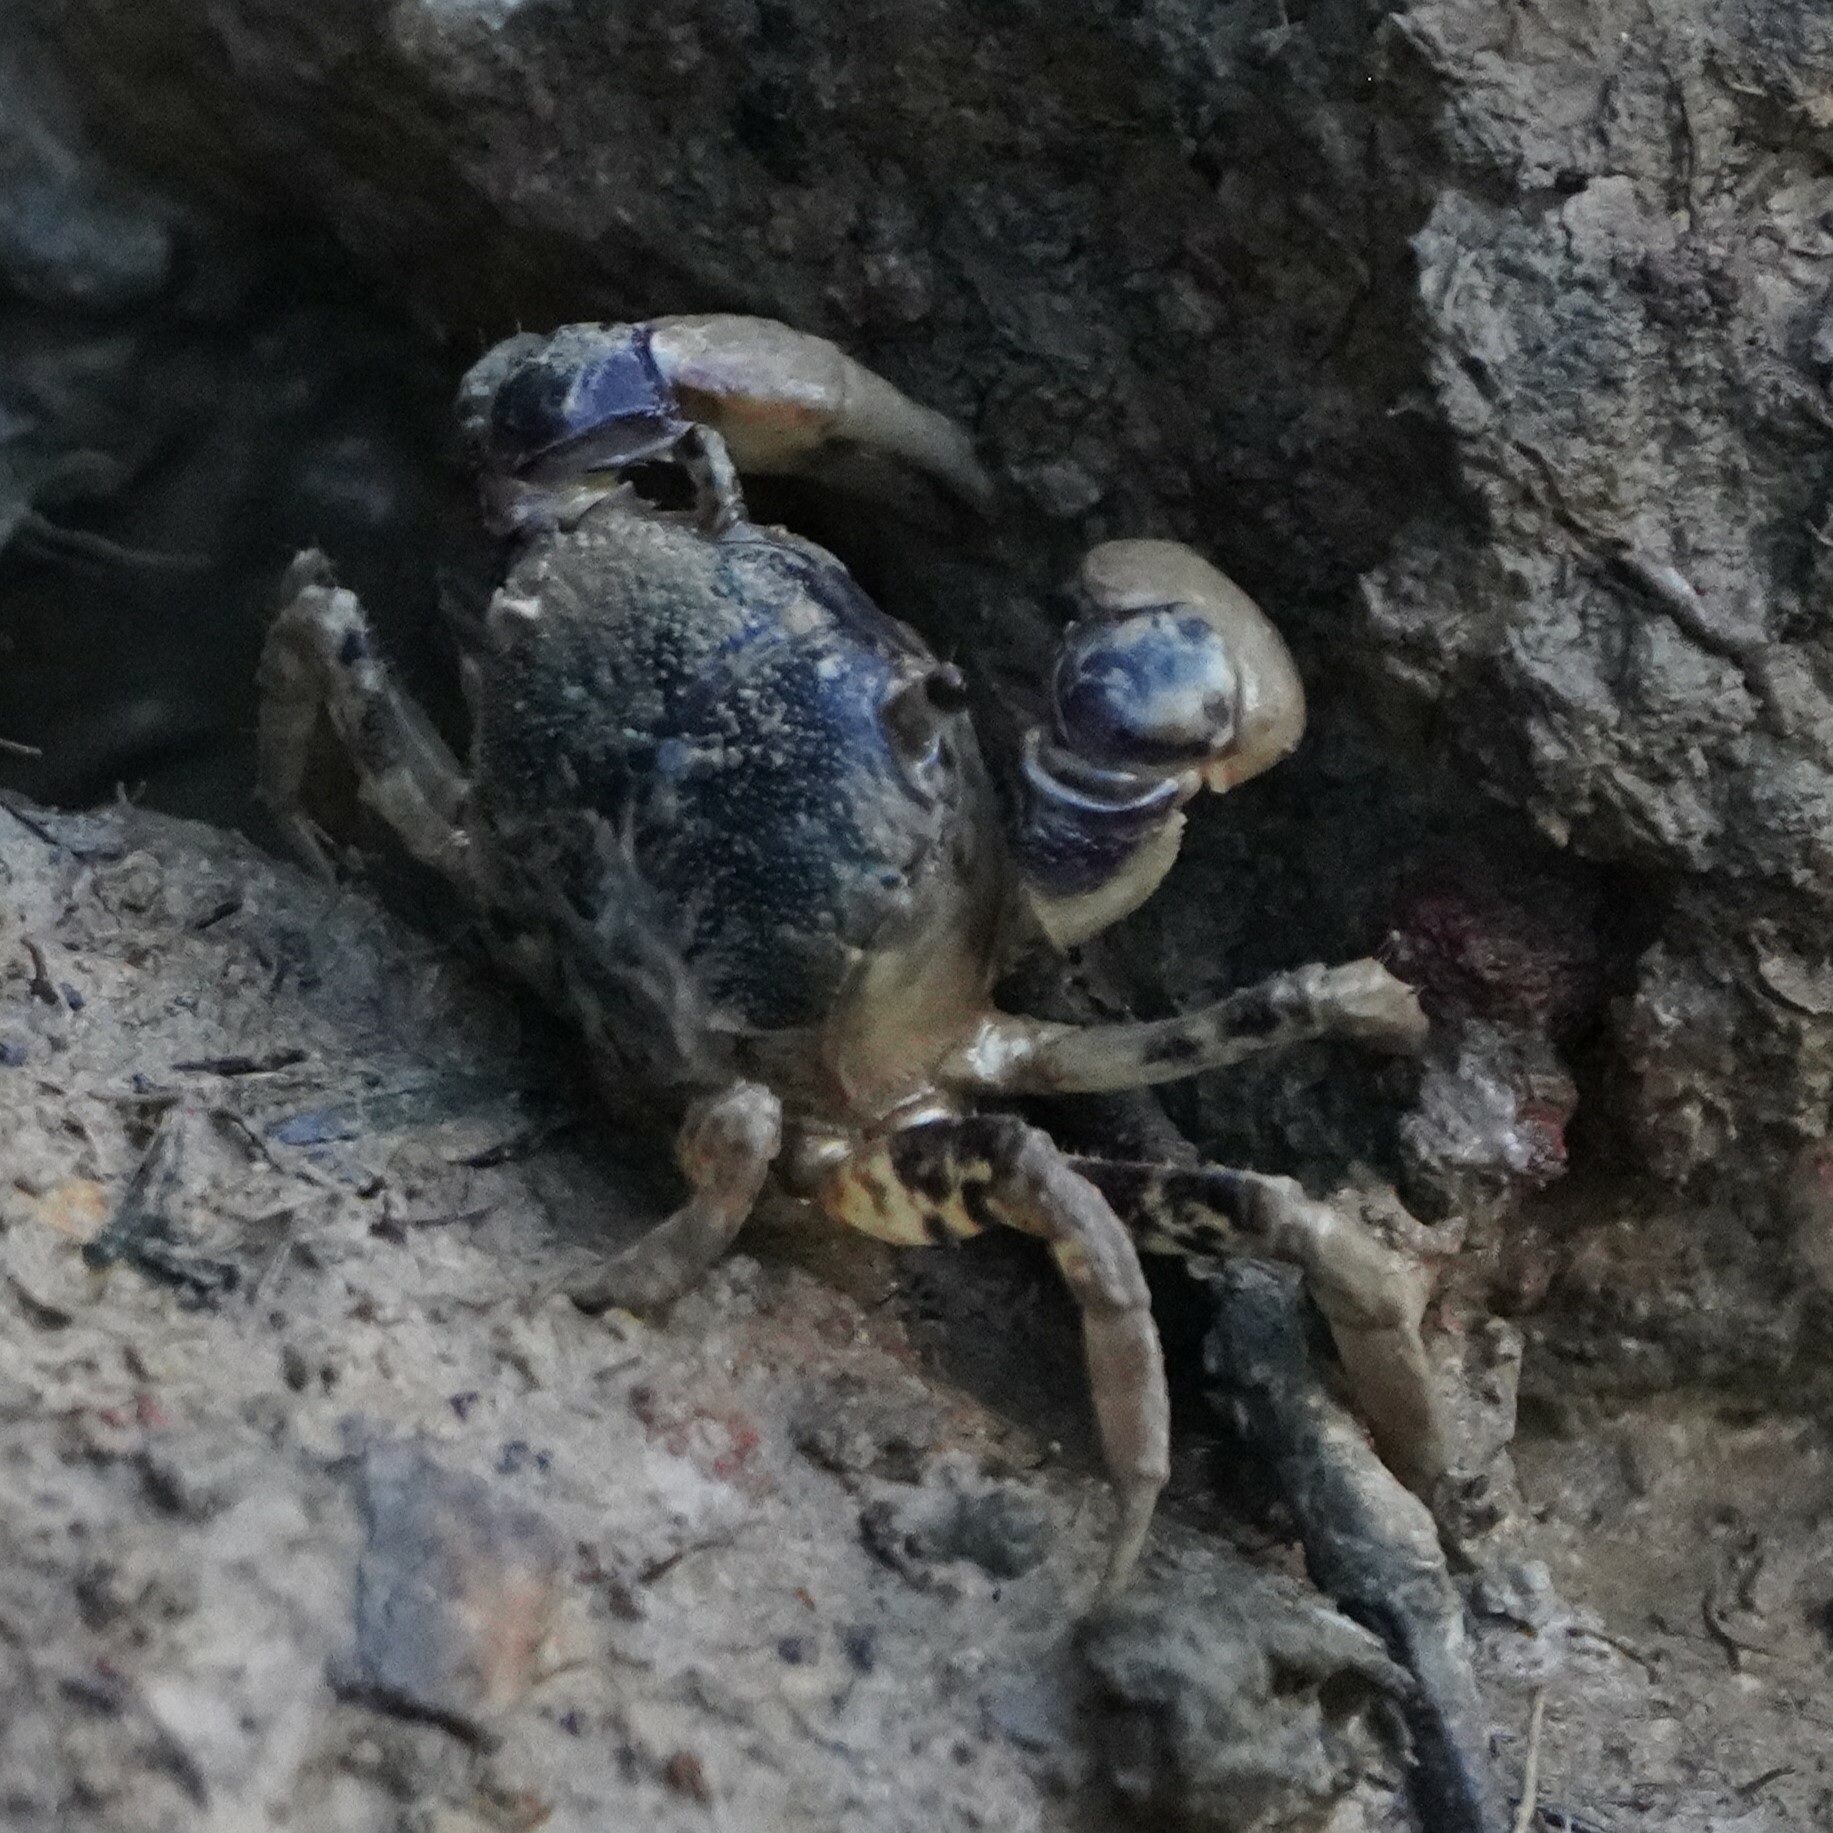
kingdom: Animalia
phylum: Arthropoda
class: Malacostraca
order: Decapoda
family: Varunidae
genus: Pseudohelice
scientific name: Pseudohelice subquadrata
